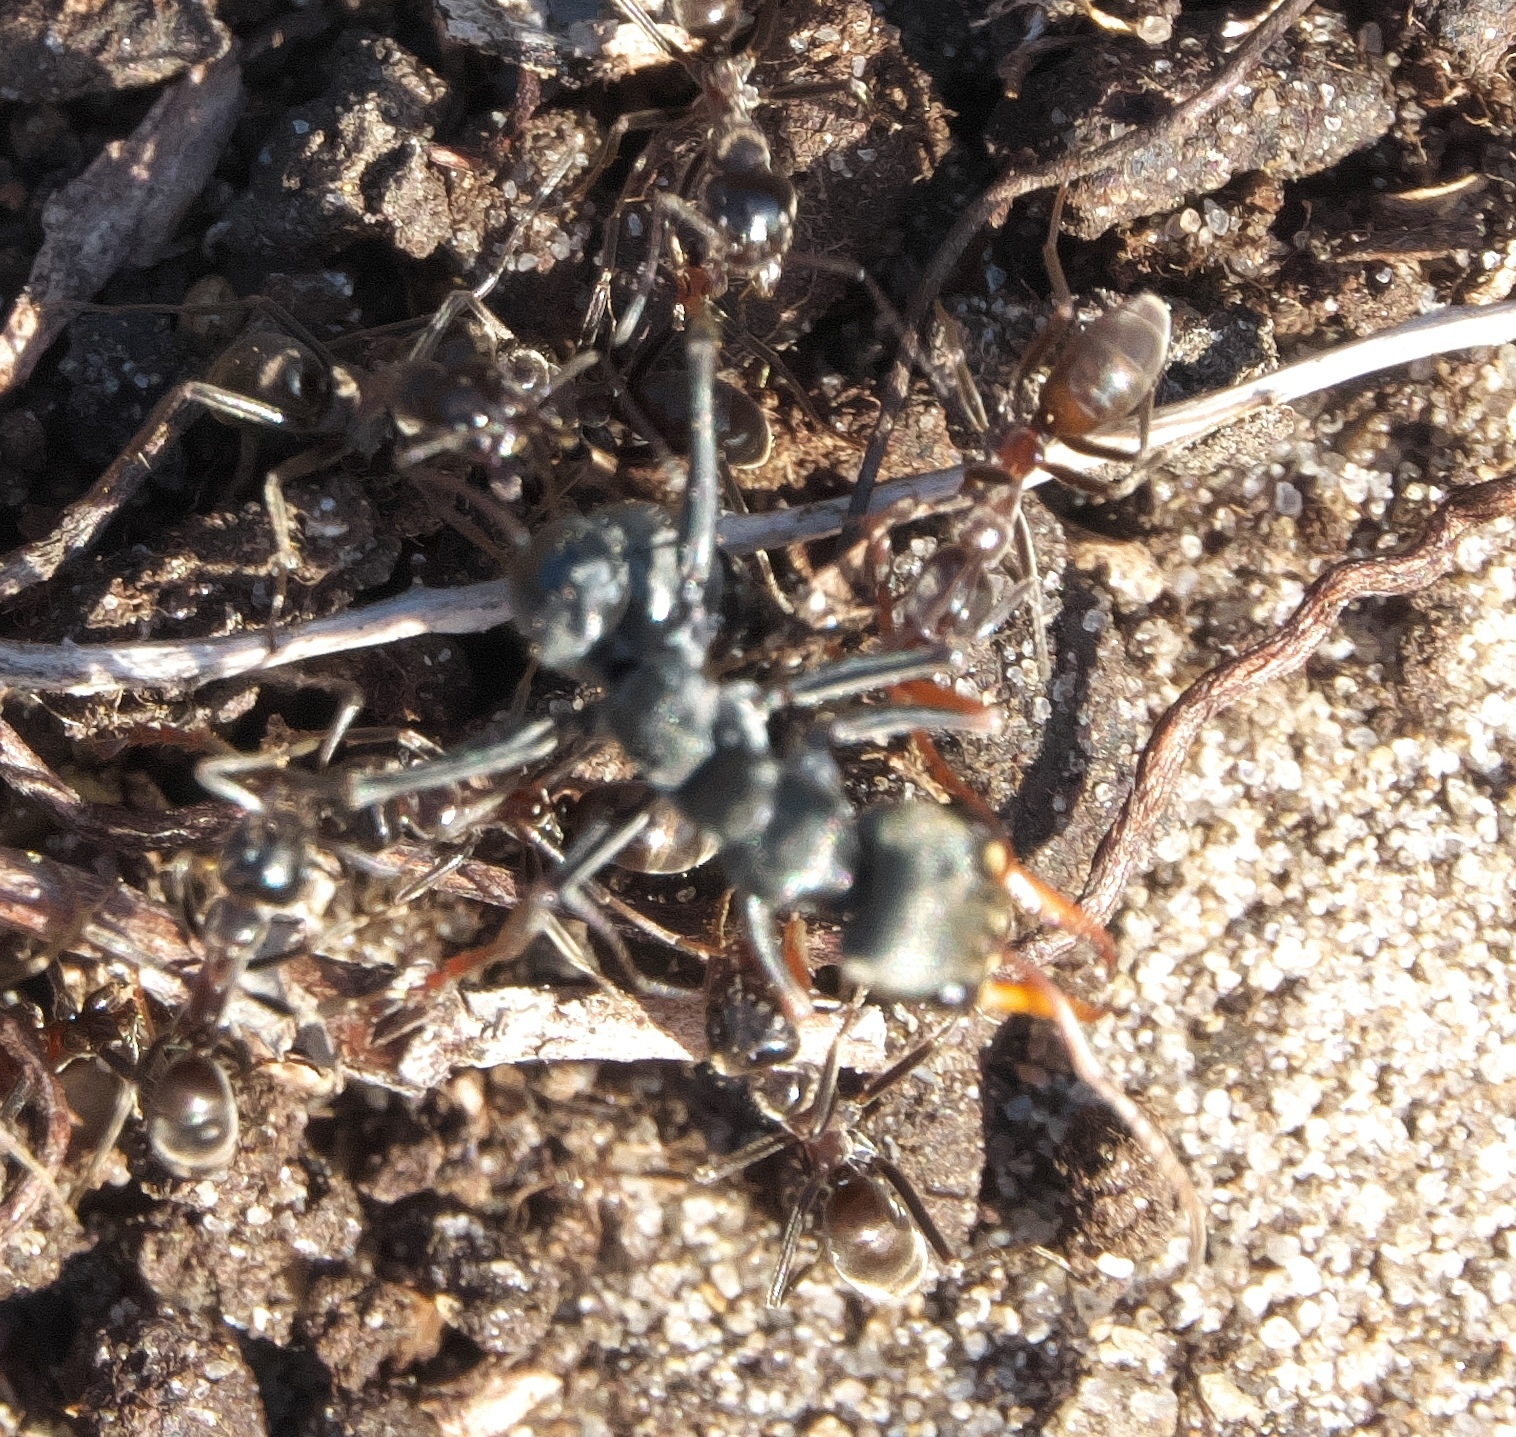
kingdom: Animalia
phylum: Arthropoda
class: Insecta
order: Hymenoptera
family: Formicidae
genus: Iridomyrmex
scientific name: Iridomyrmex
